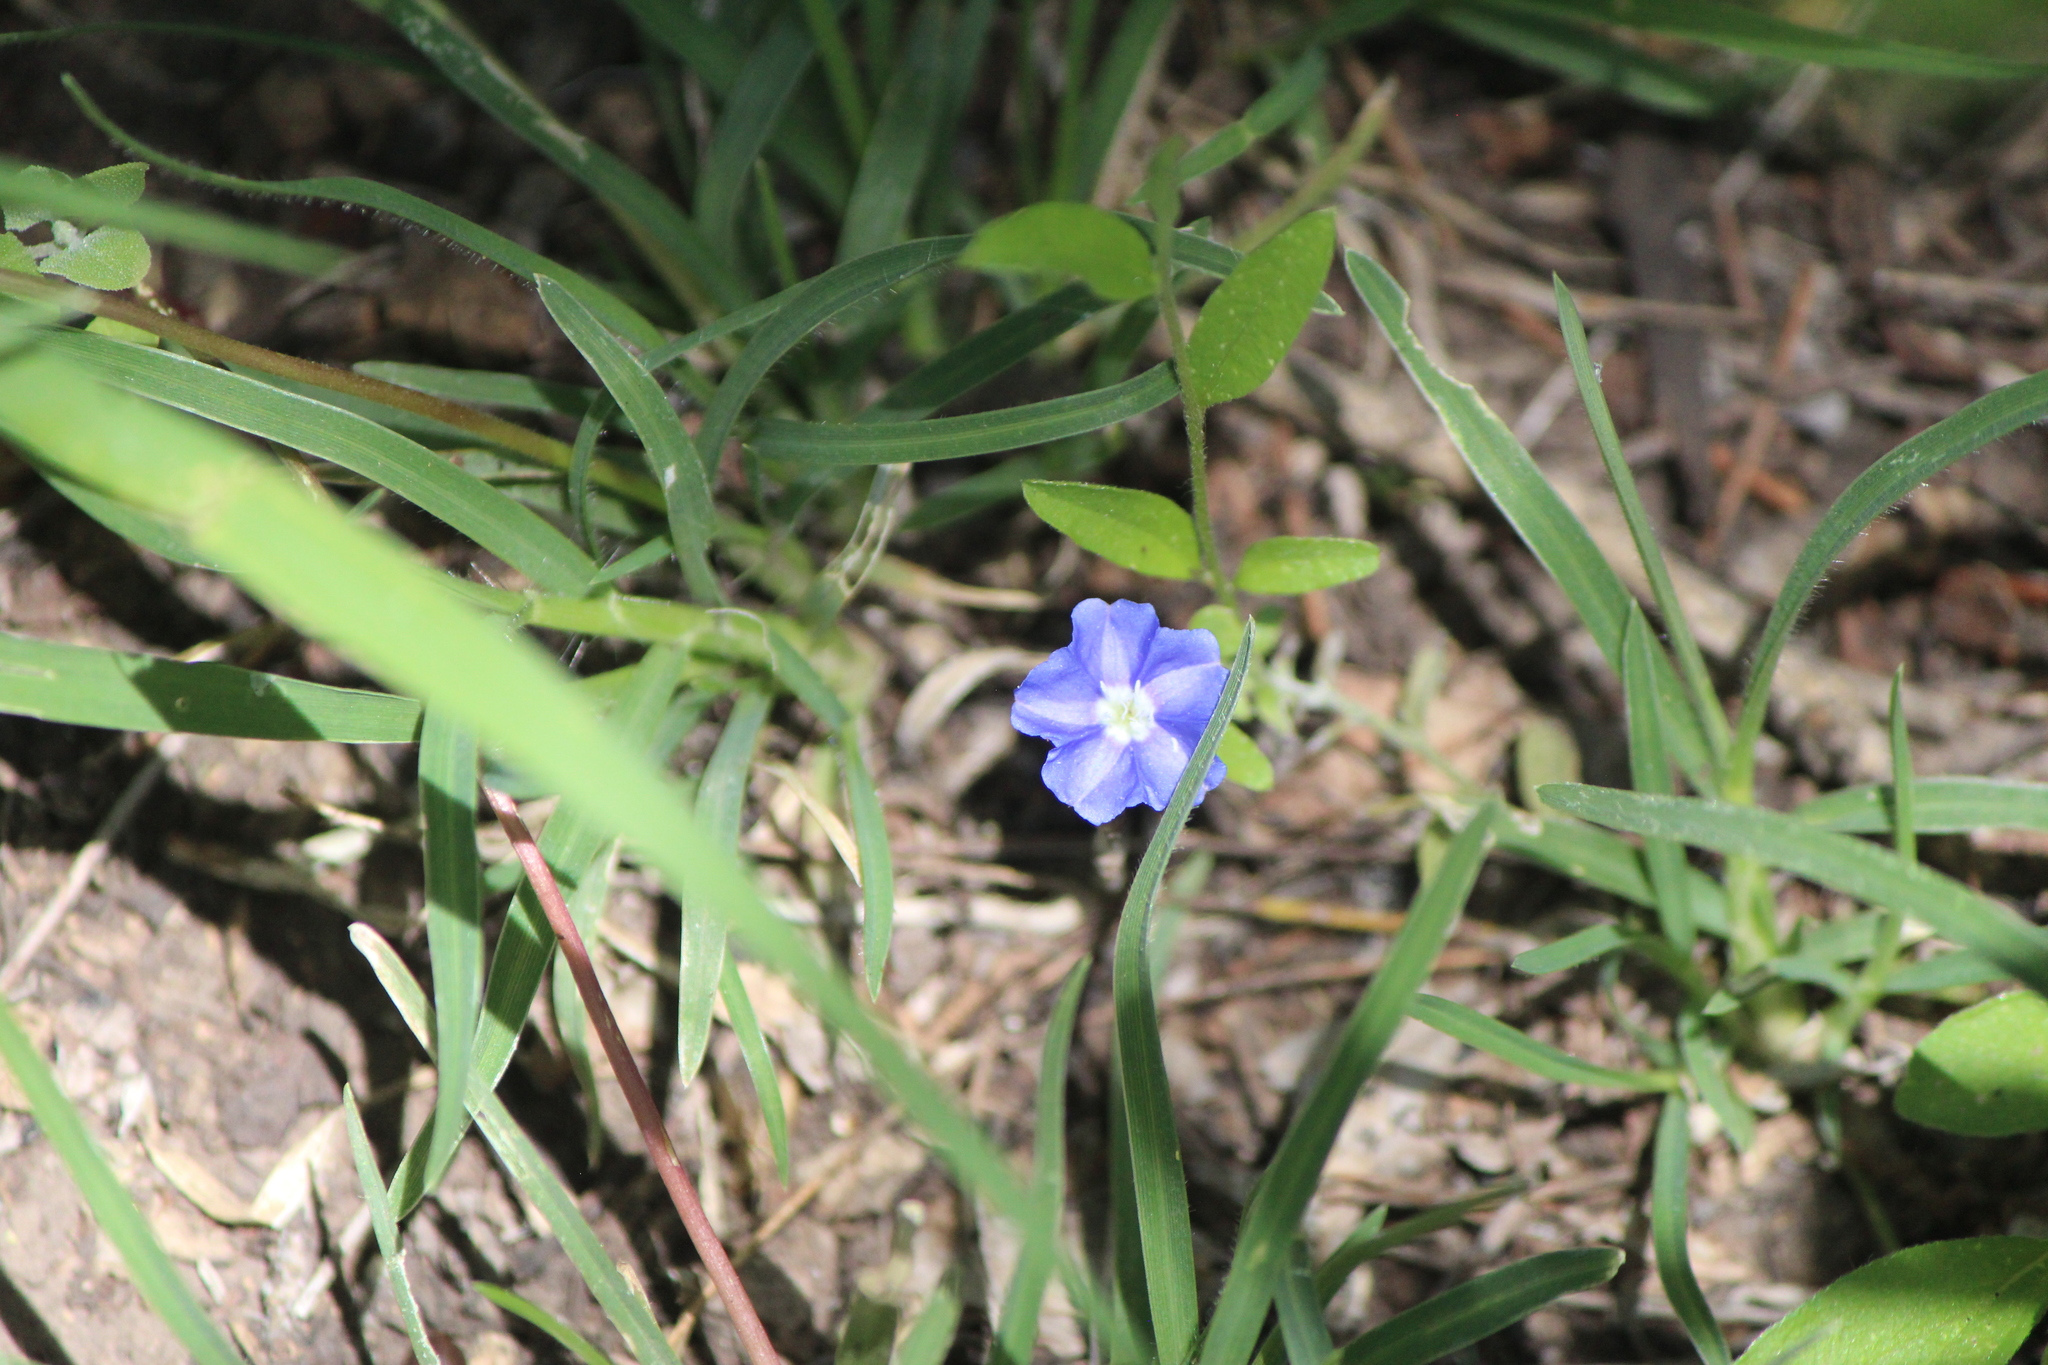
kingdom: Plantae
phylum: Tracheophyta
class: Magnoliopsida
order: Solanales
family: Convolvulaceae
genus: Evolvulus
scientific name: Evolvulus alsinoides
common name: Slender dwarf morning-glory
